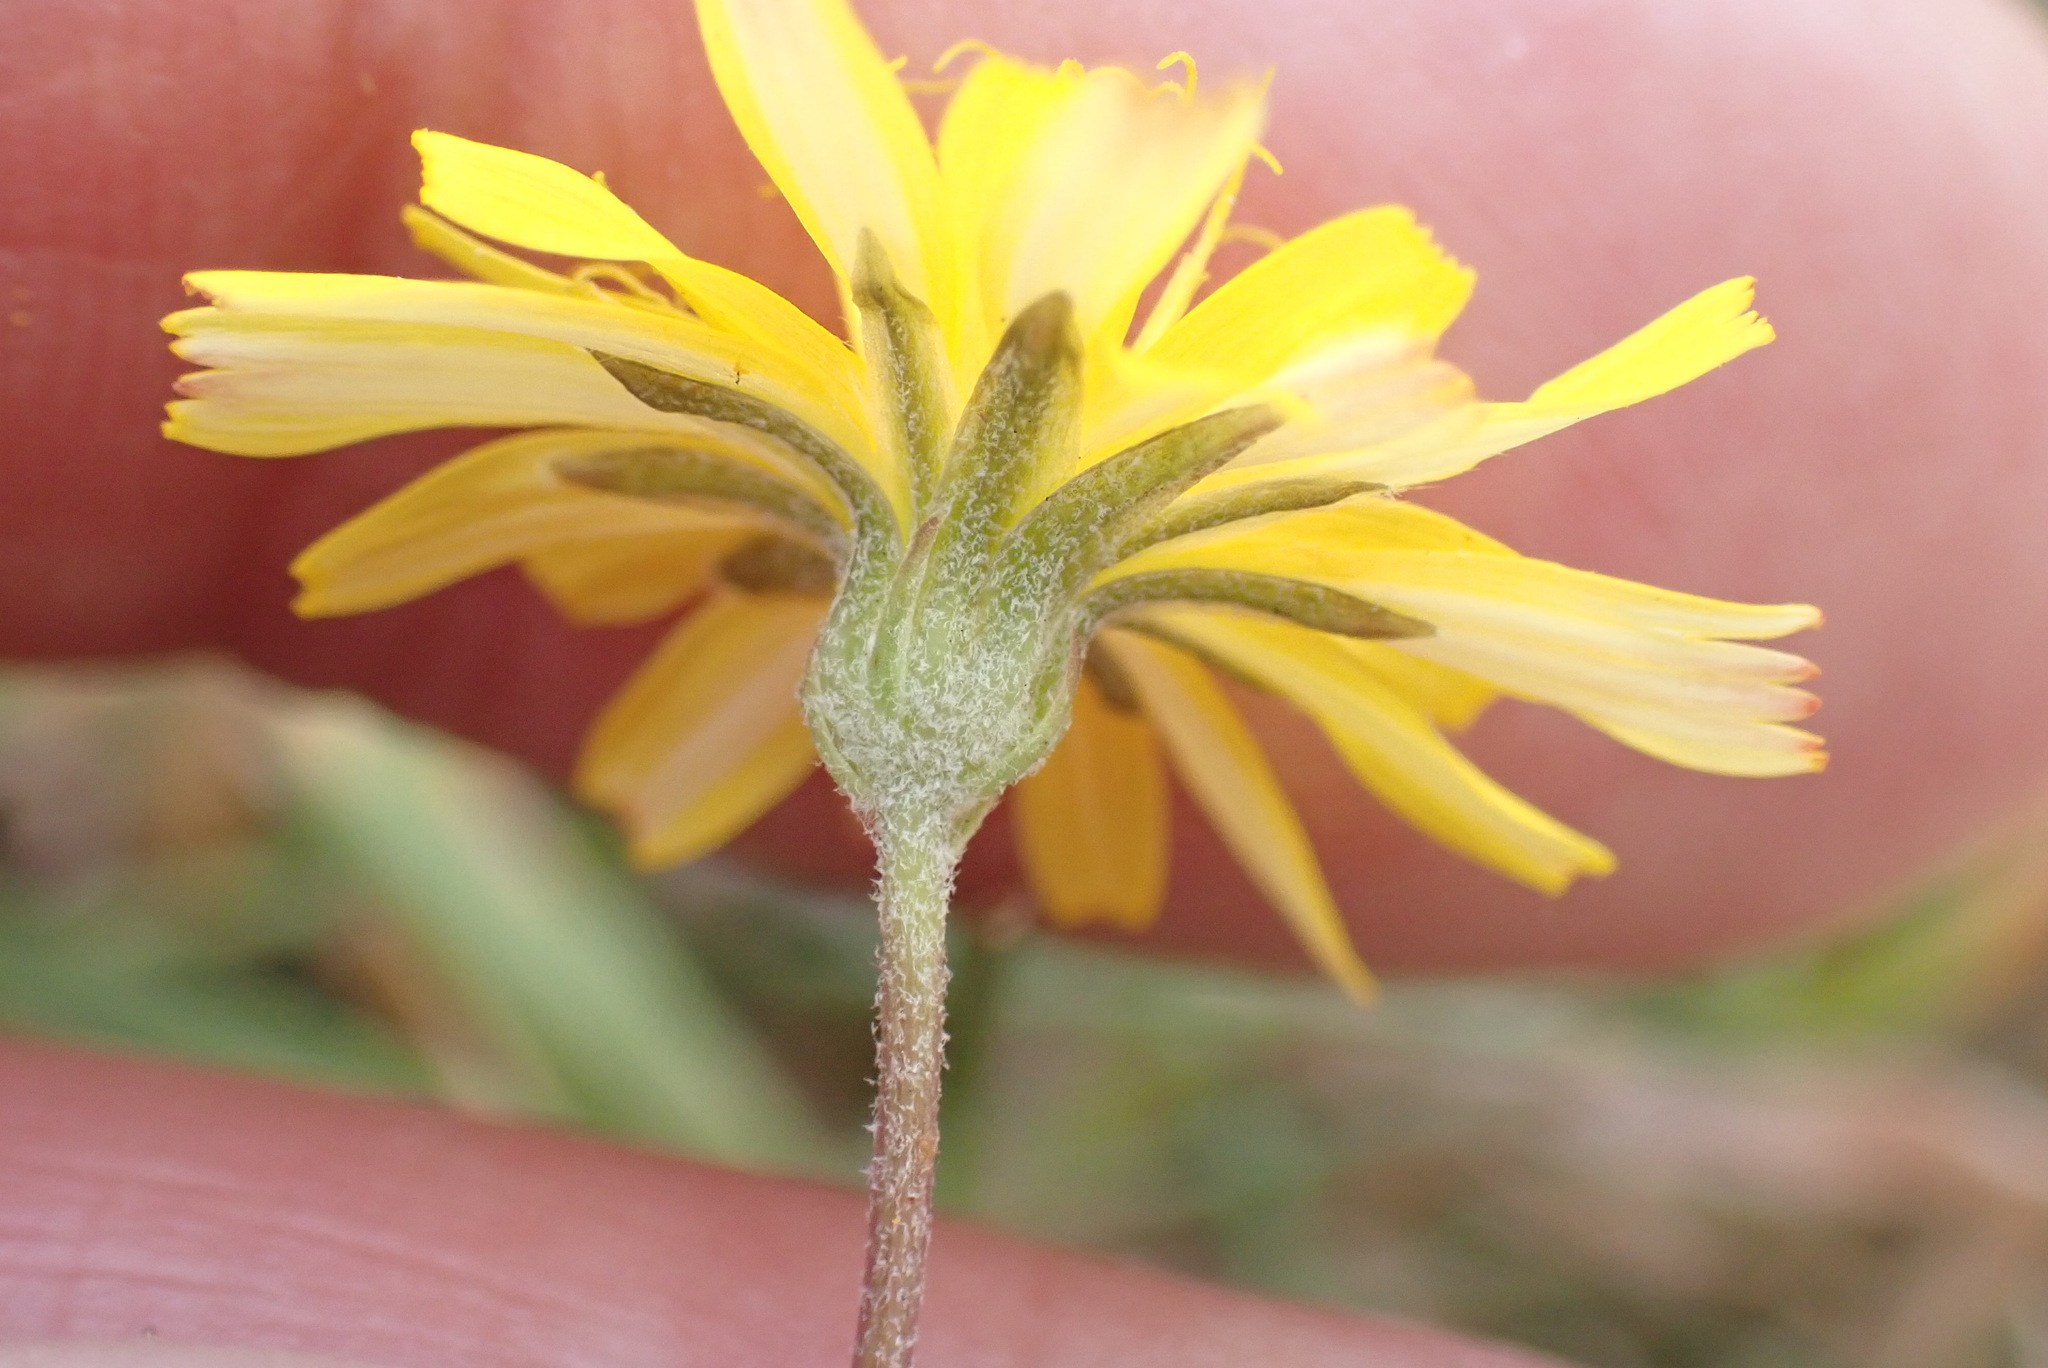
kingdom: Plantae
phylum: Tracheophyta
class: Magnoliopsida
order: Asterales
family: Asteraceae
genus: Scorzoneroides
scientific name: Scorzoneroides autumnalis
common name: Autumn hawkbit
